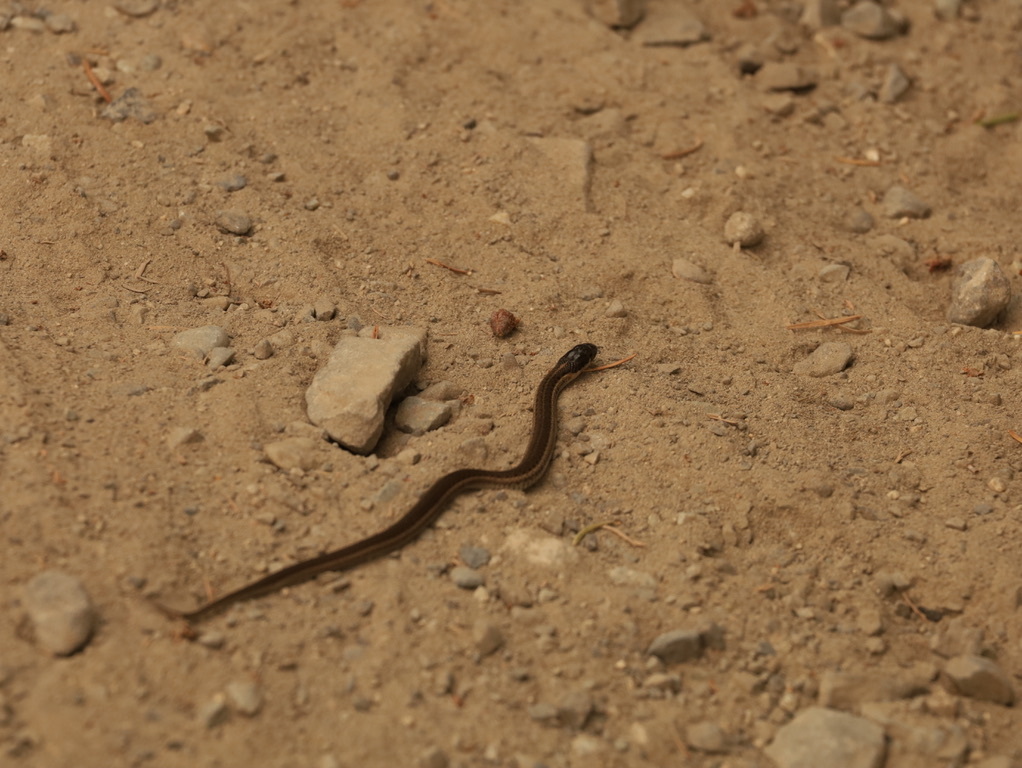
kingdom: Animalia
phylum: Chordata
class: Squamata
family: Colubridae
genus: Thamnophis
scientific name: Thamnophis ordinoides
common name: Northwestern garter snake
